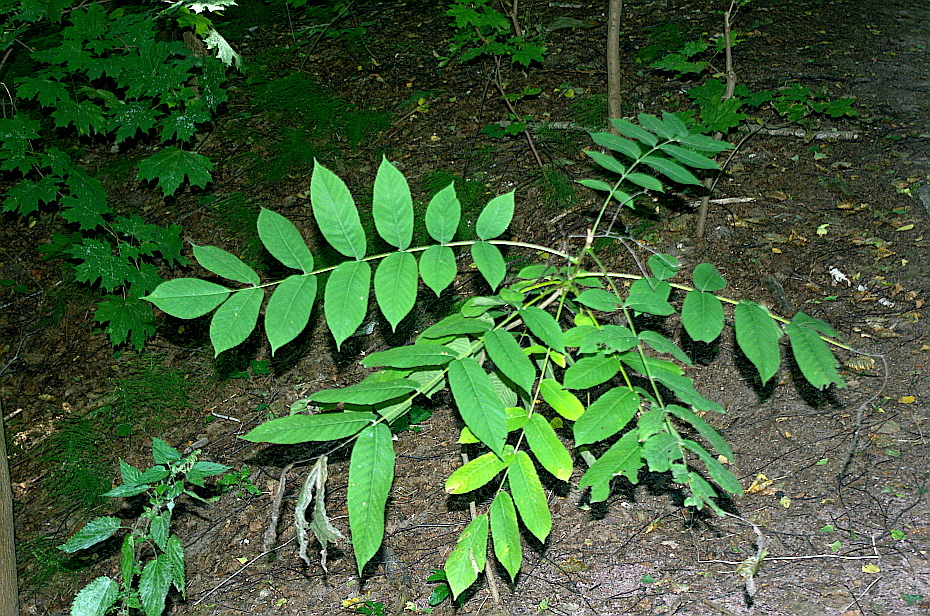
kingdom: Plantae
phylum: Tracheophyta
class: Magnoliopsida
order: Fagales
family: Juglandaceae
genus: Juglans
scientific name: Juglans mandshurica
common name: Manchurian walnut
